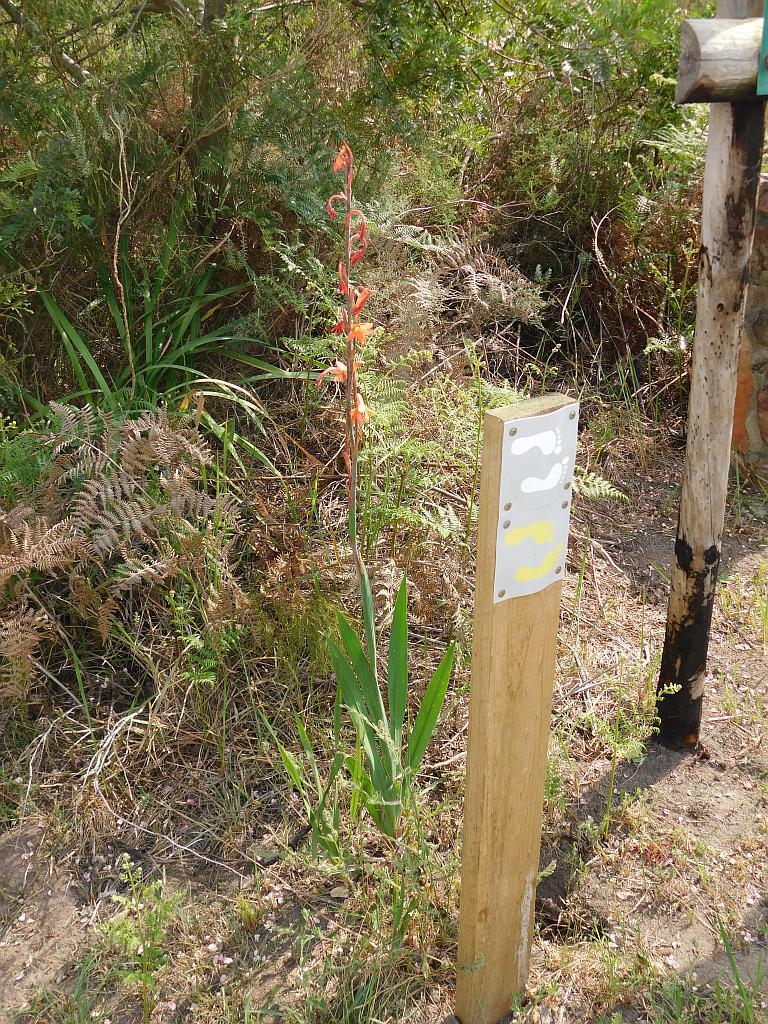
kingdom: Plantae
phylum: Tracheophyta
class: Liliopsida
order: Asparagales
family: Iridaceae
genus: Watsonia
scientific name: Watsonia meriana
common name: Bulbil bugle-lily
